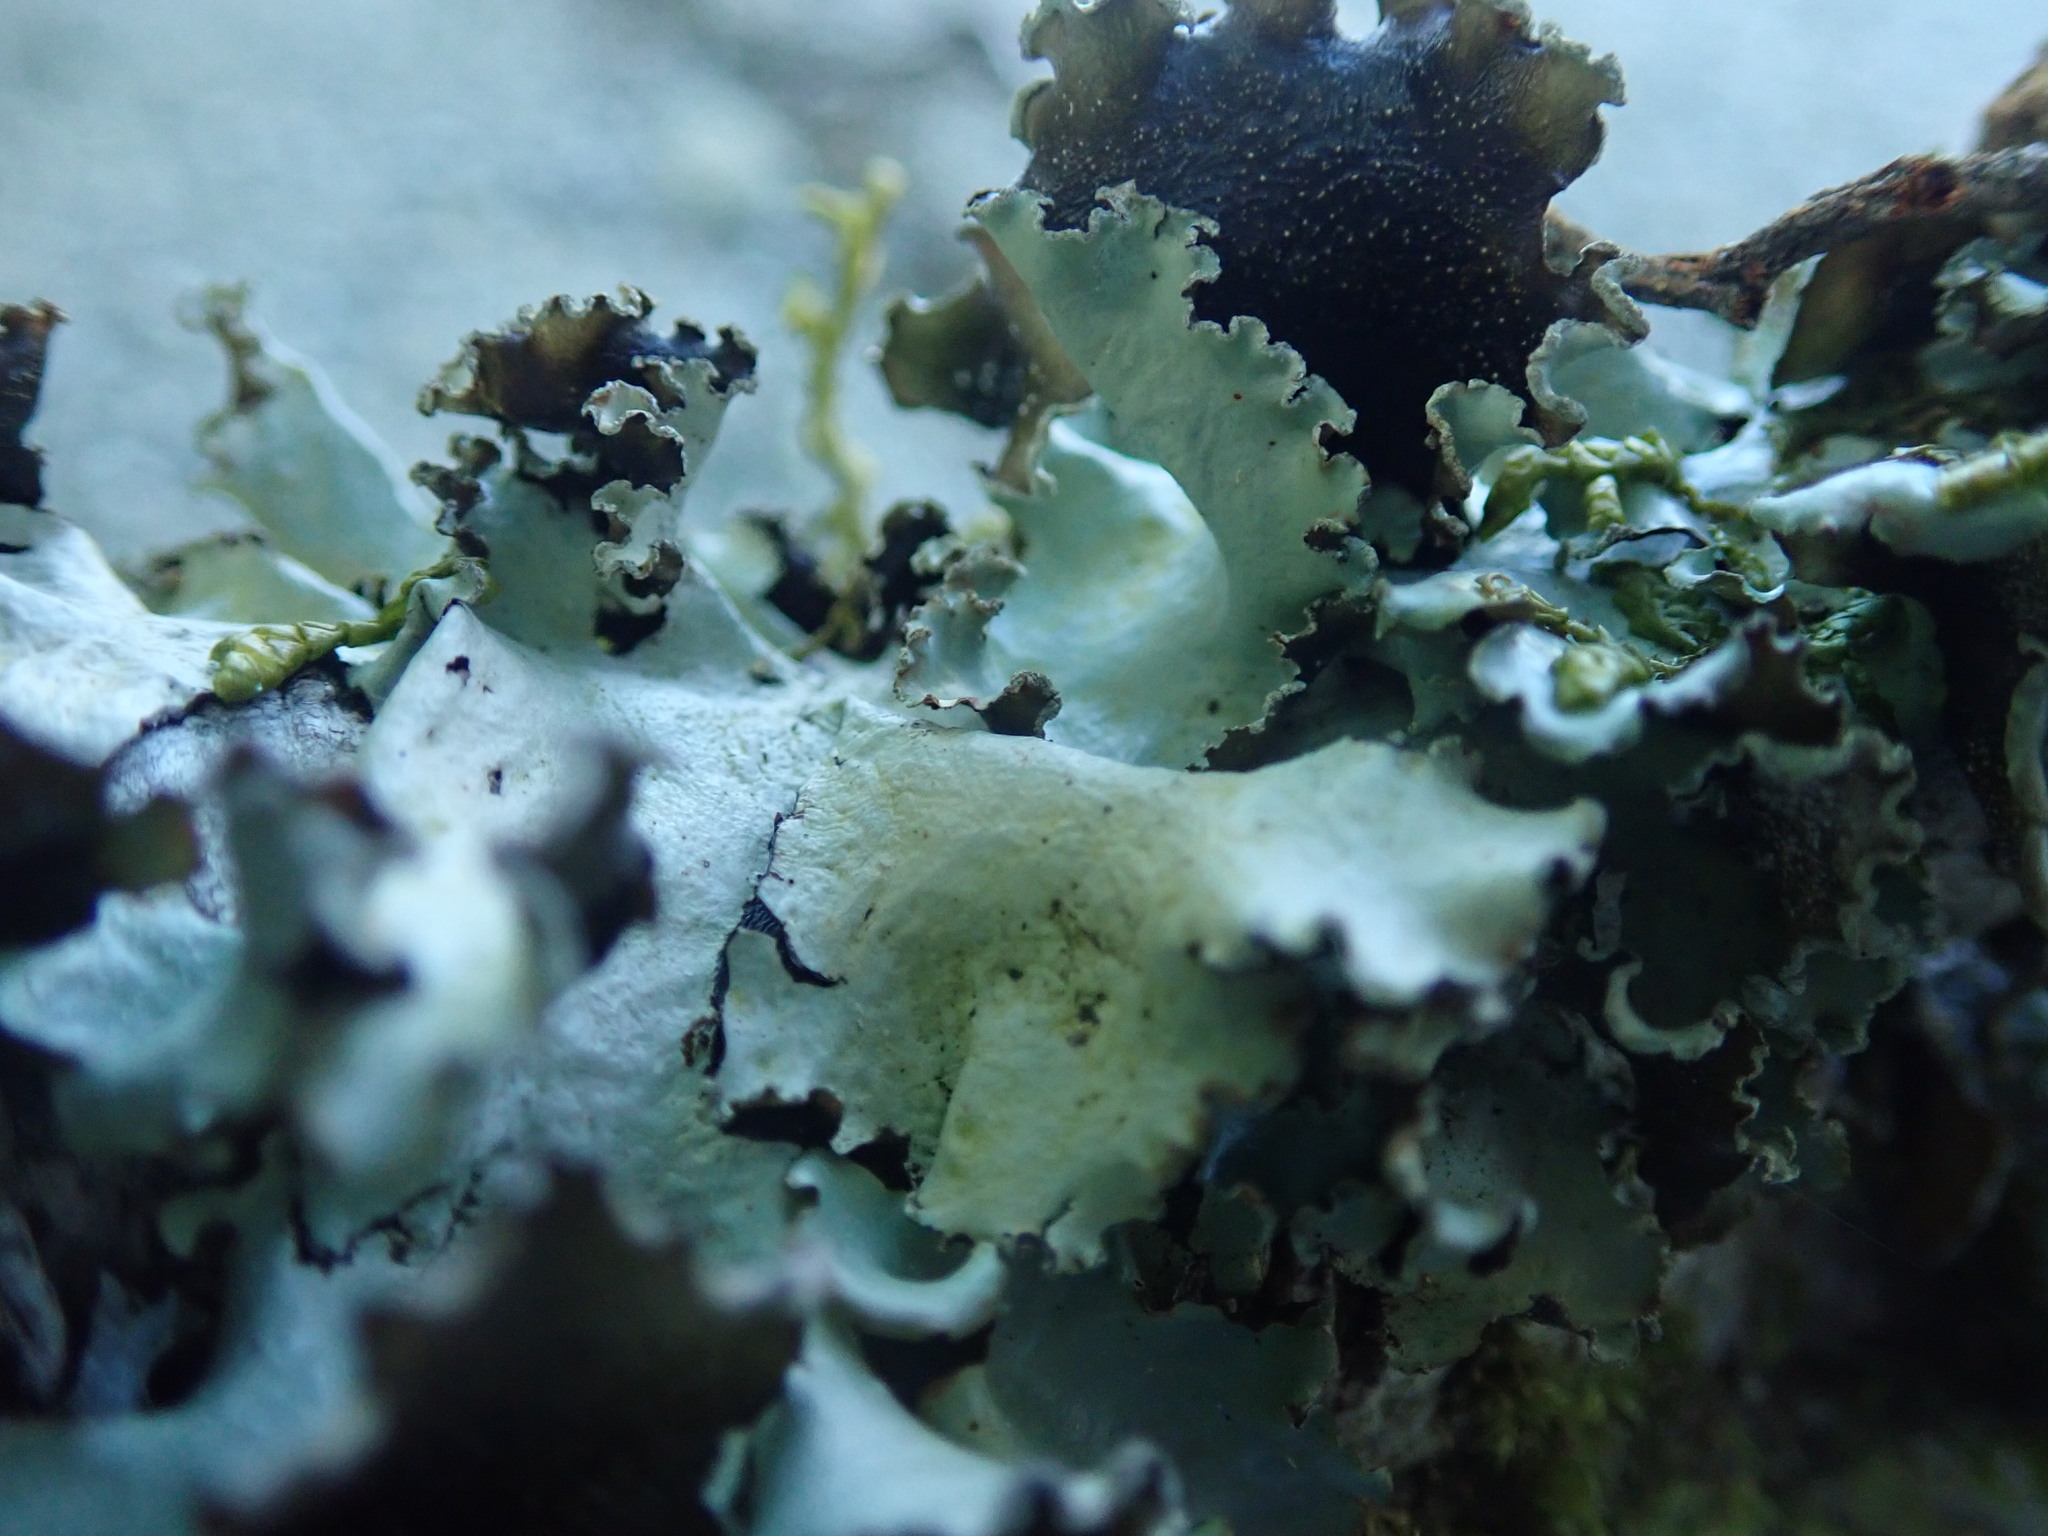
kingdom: Fungi
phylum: Ascomycota
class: Lecanoromycetes
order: Lecanorales
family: Parmeliaceae
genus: Cetrelia
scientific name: Cetrelia cetrarioides
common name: Speckled iceland lichen
